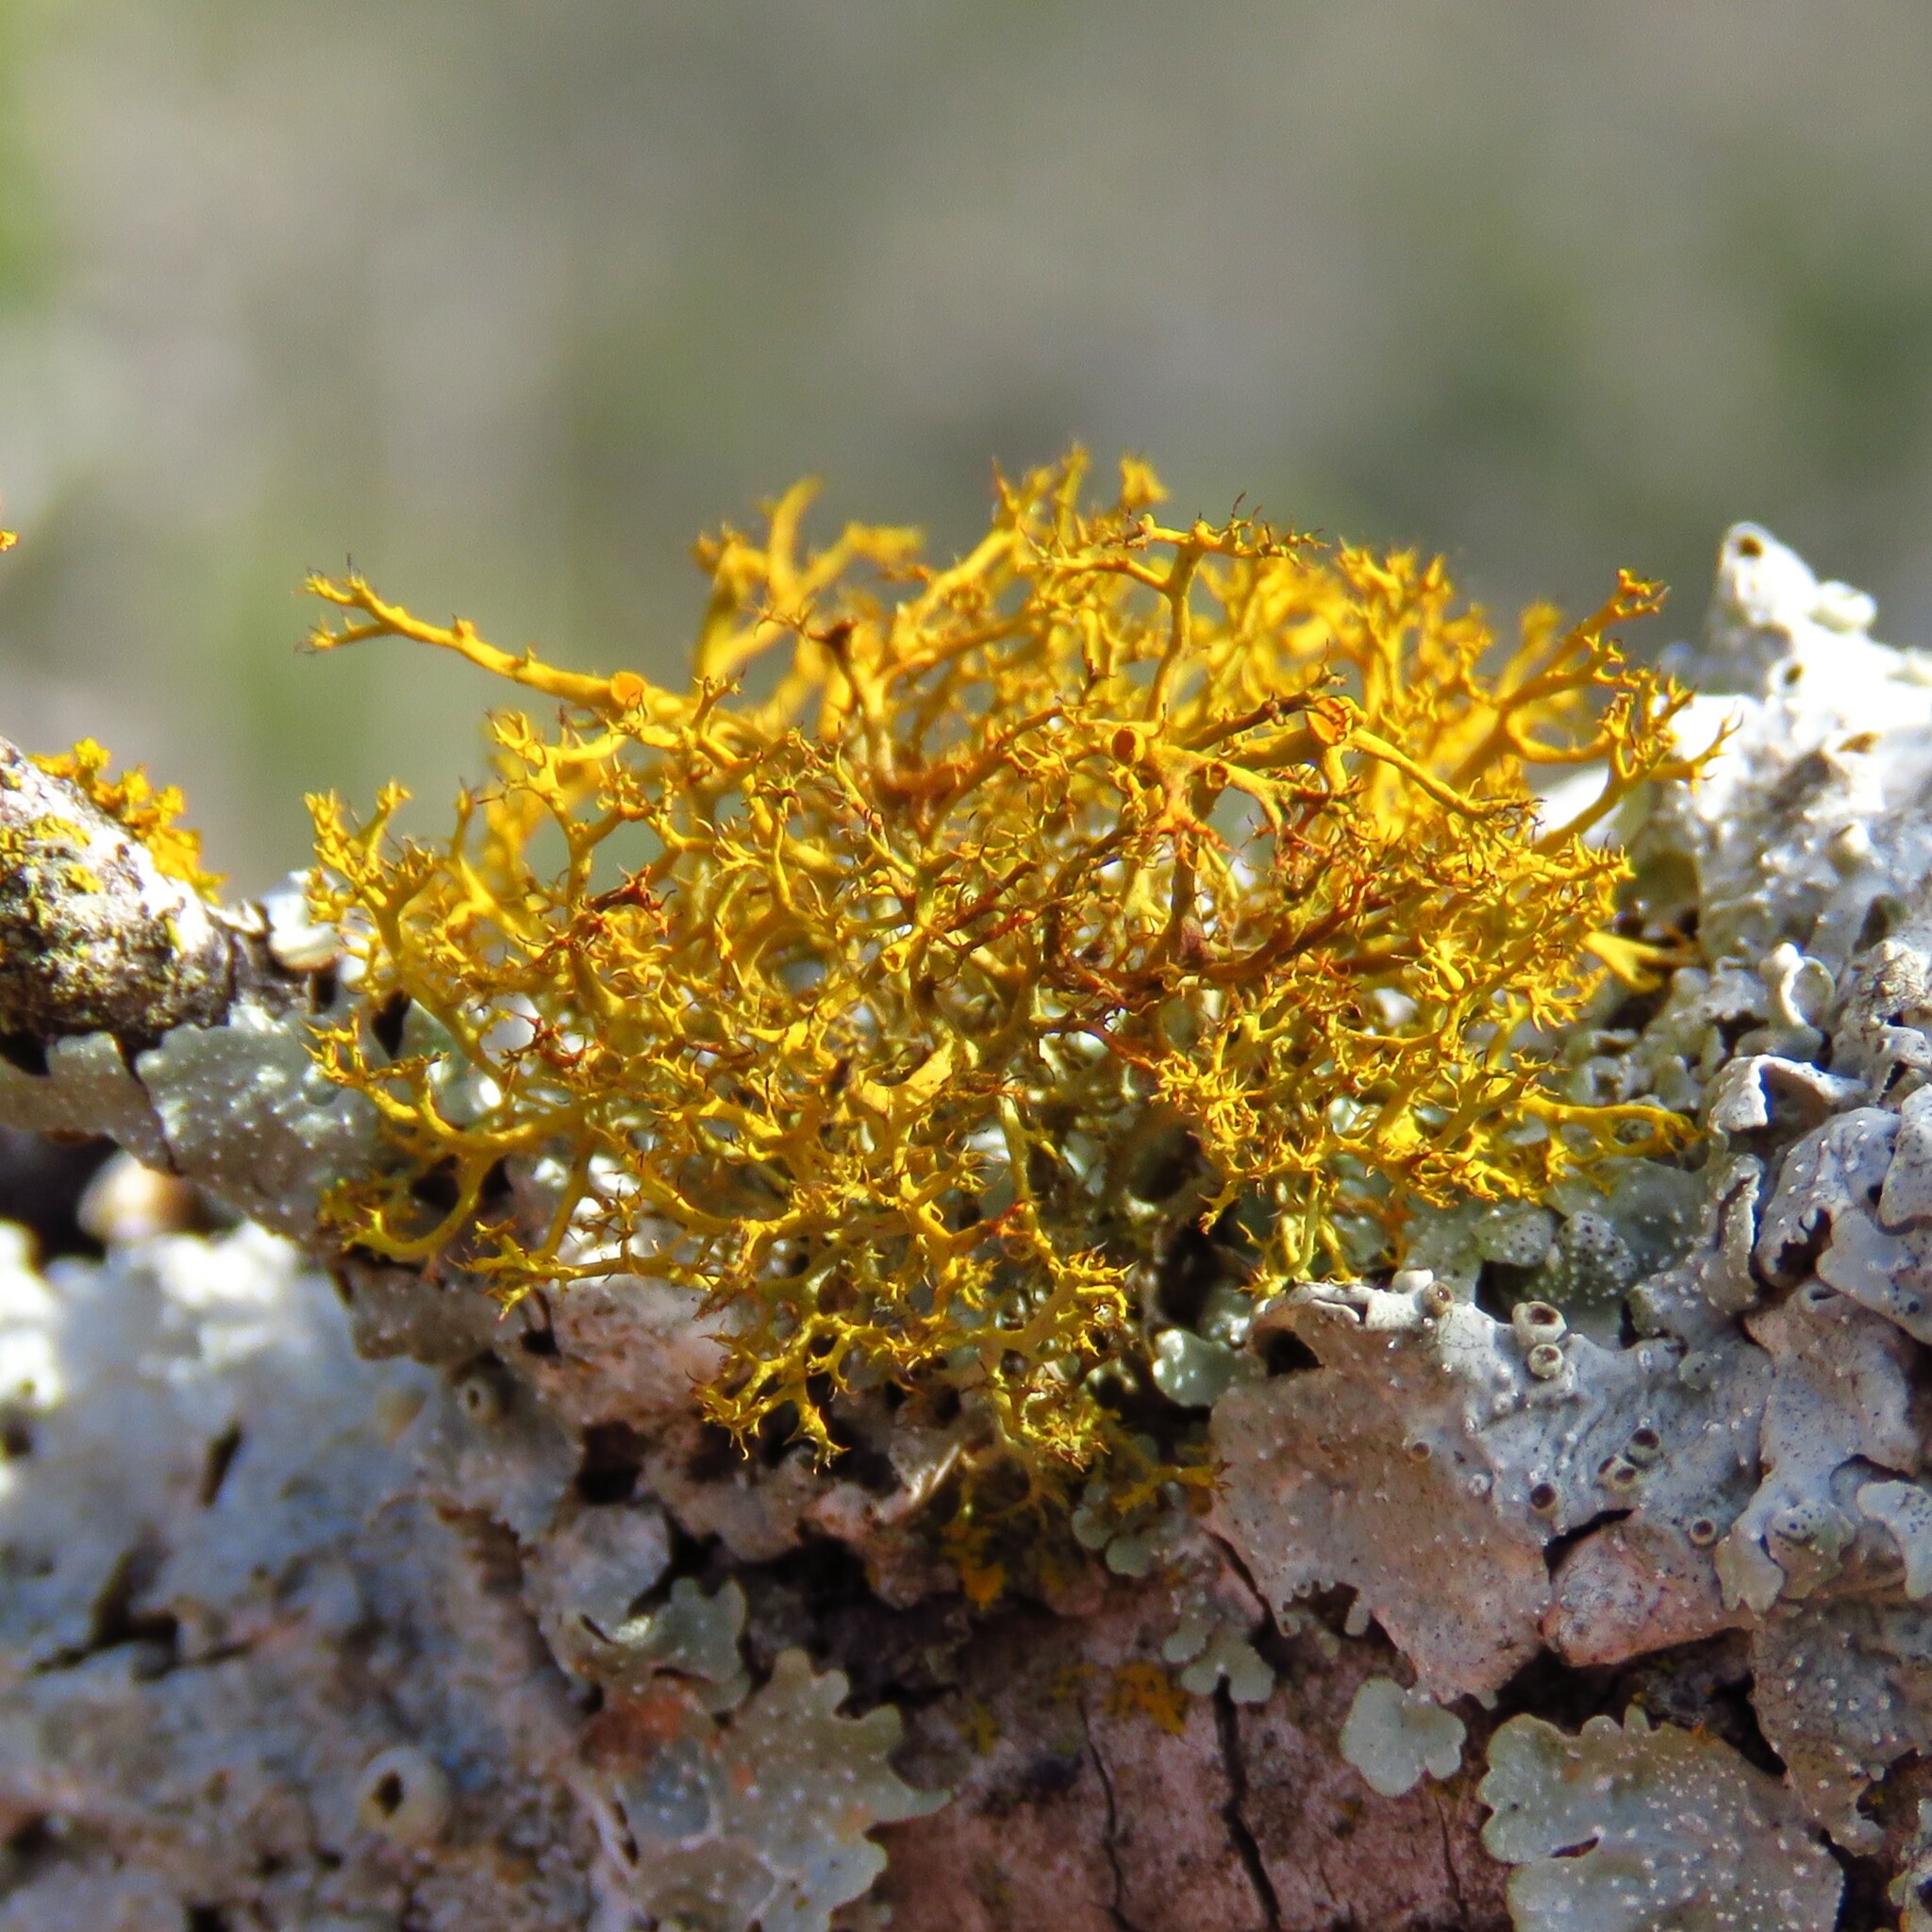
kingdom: Fungi
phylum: Ascomycota
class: Lecanoromycetes
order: Teloschistales
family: Teloschistaceae
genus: Teloschistes
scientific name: Teloschistes exilis
